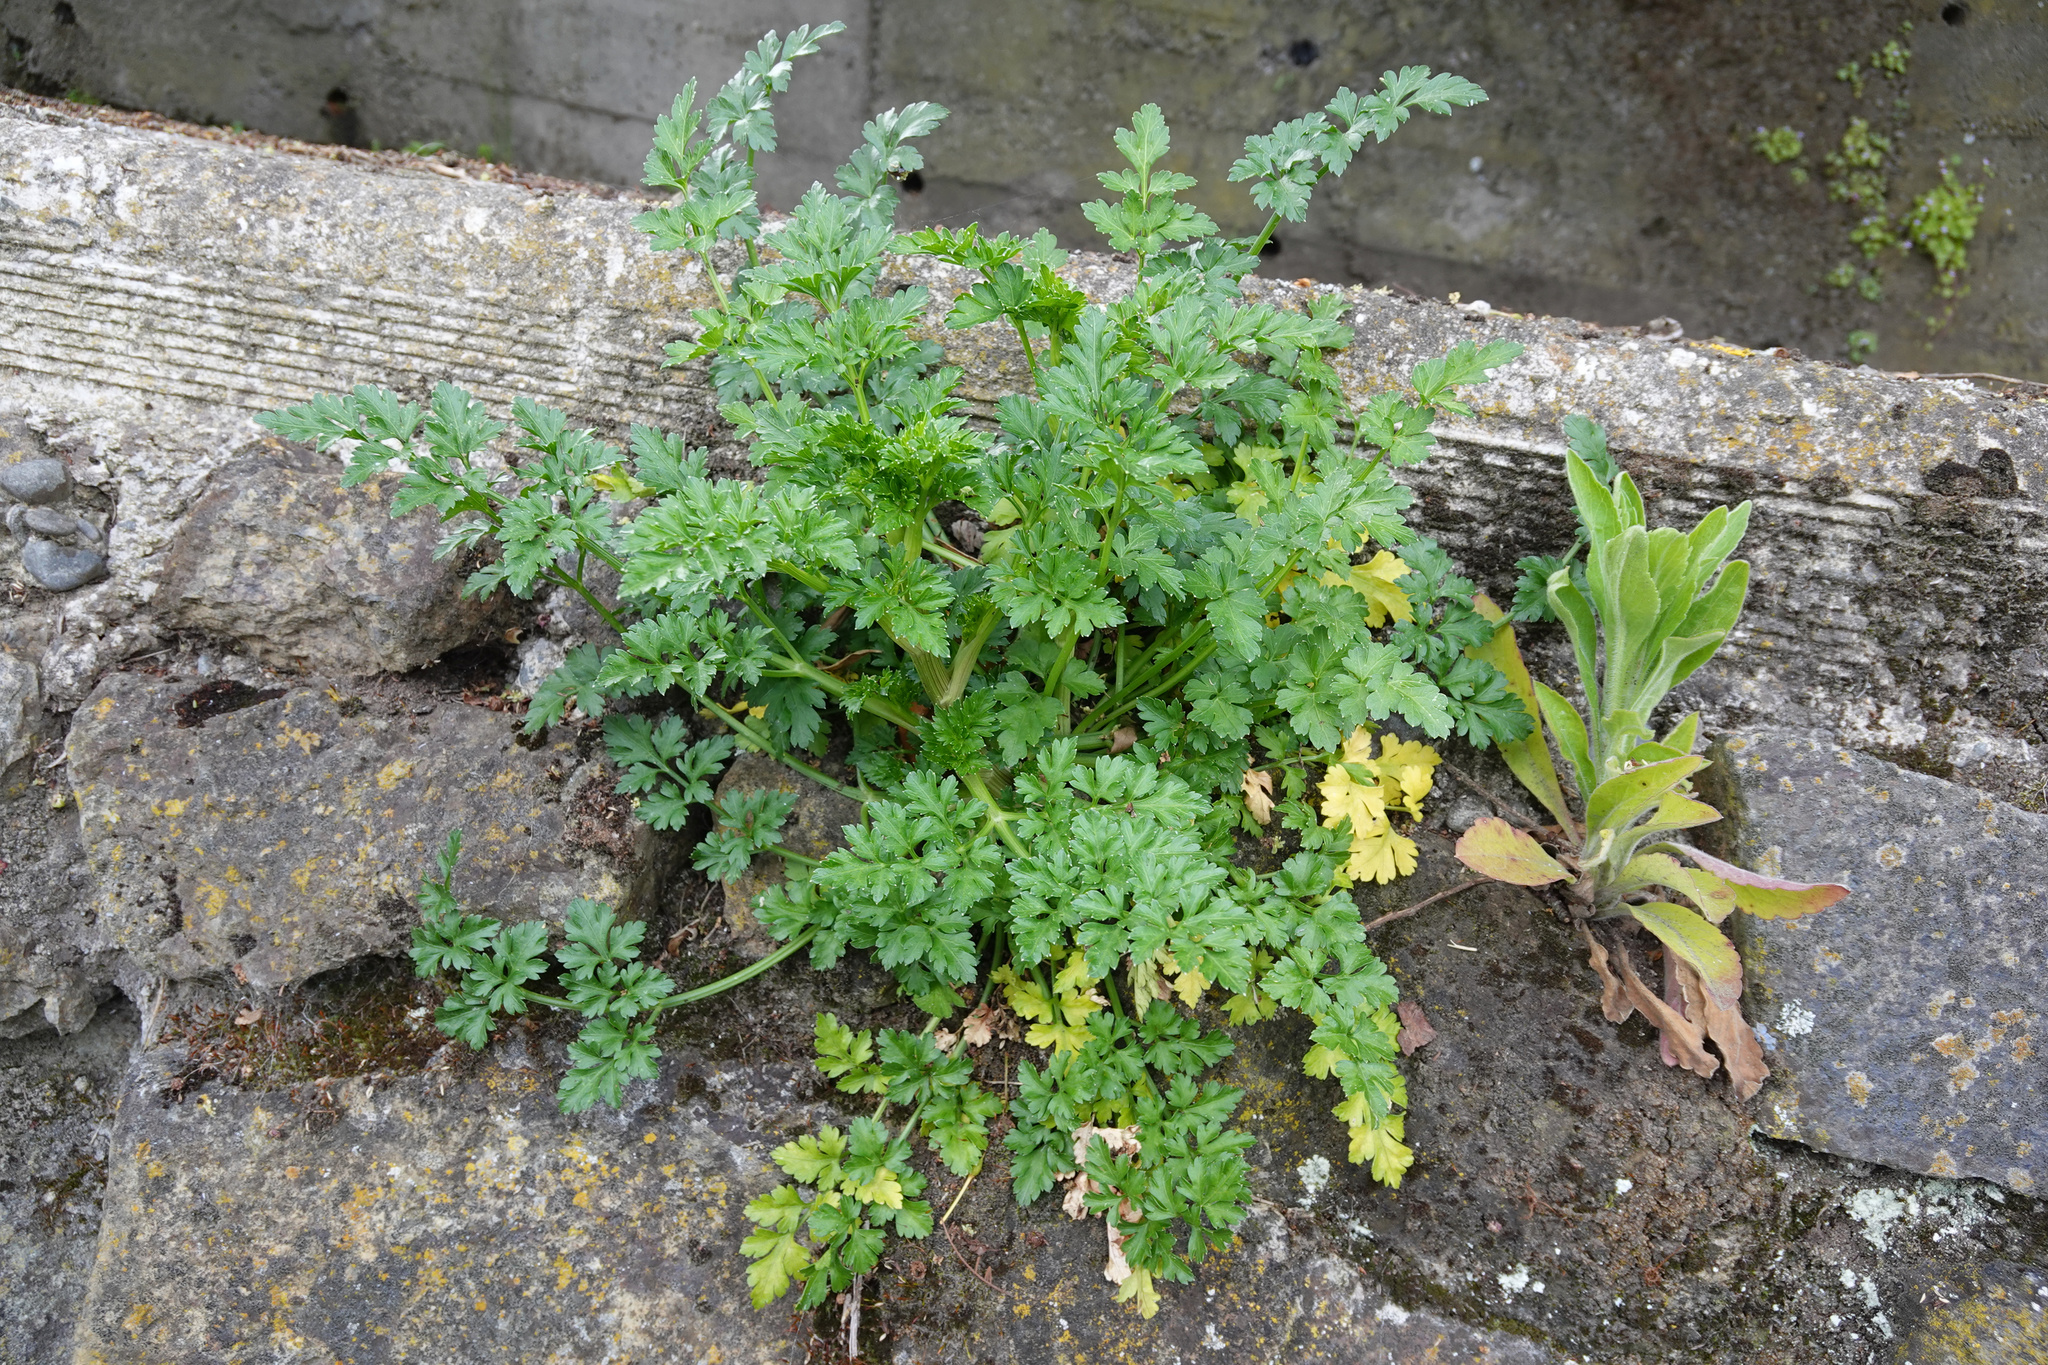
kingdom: Plantae
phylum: Tracheophyta
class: Magnoliopsida
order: Apiales
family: Apiaceae
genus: Petroselinum
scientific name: Petroselinum crispum
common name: Parsley
